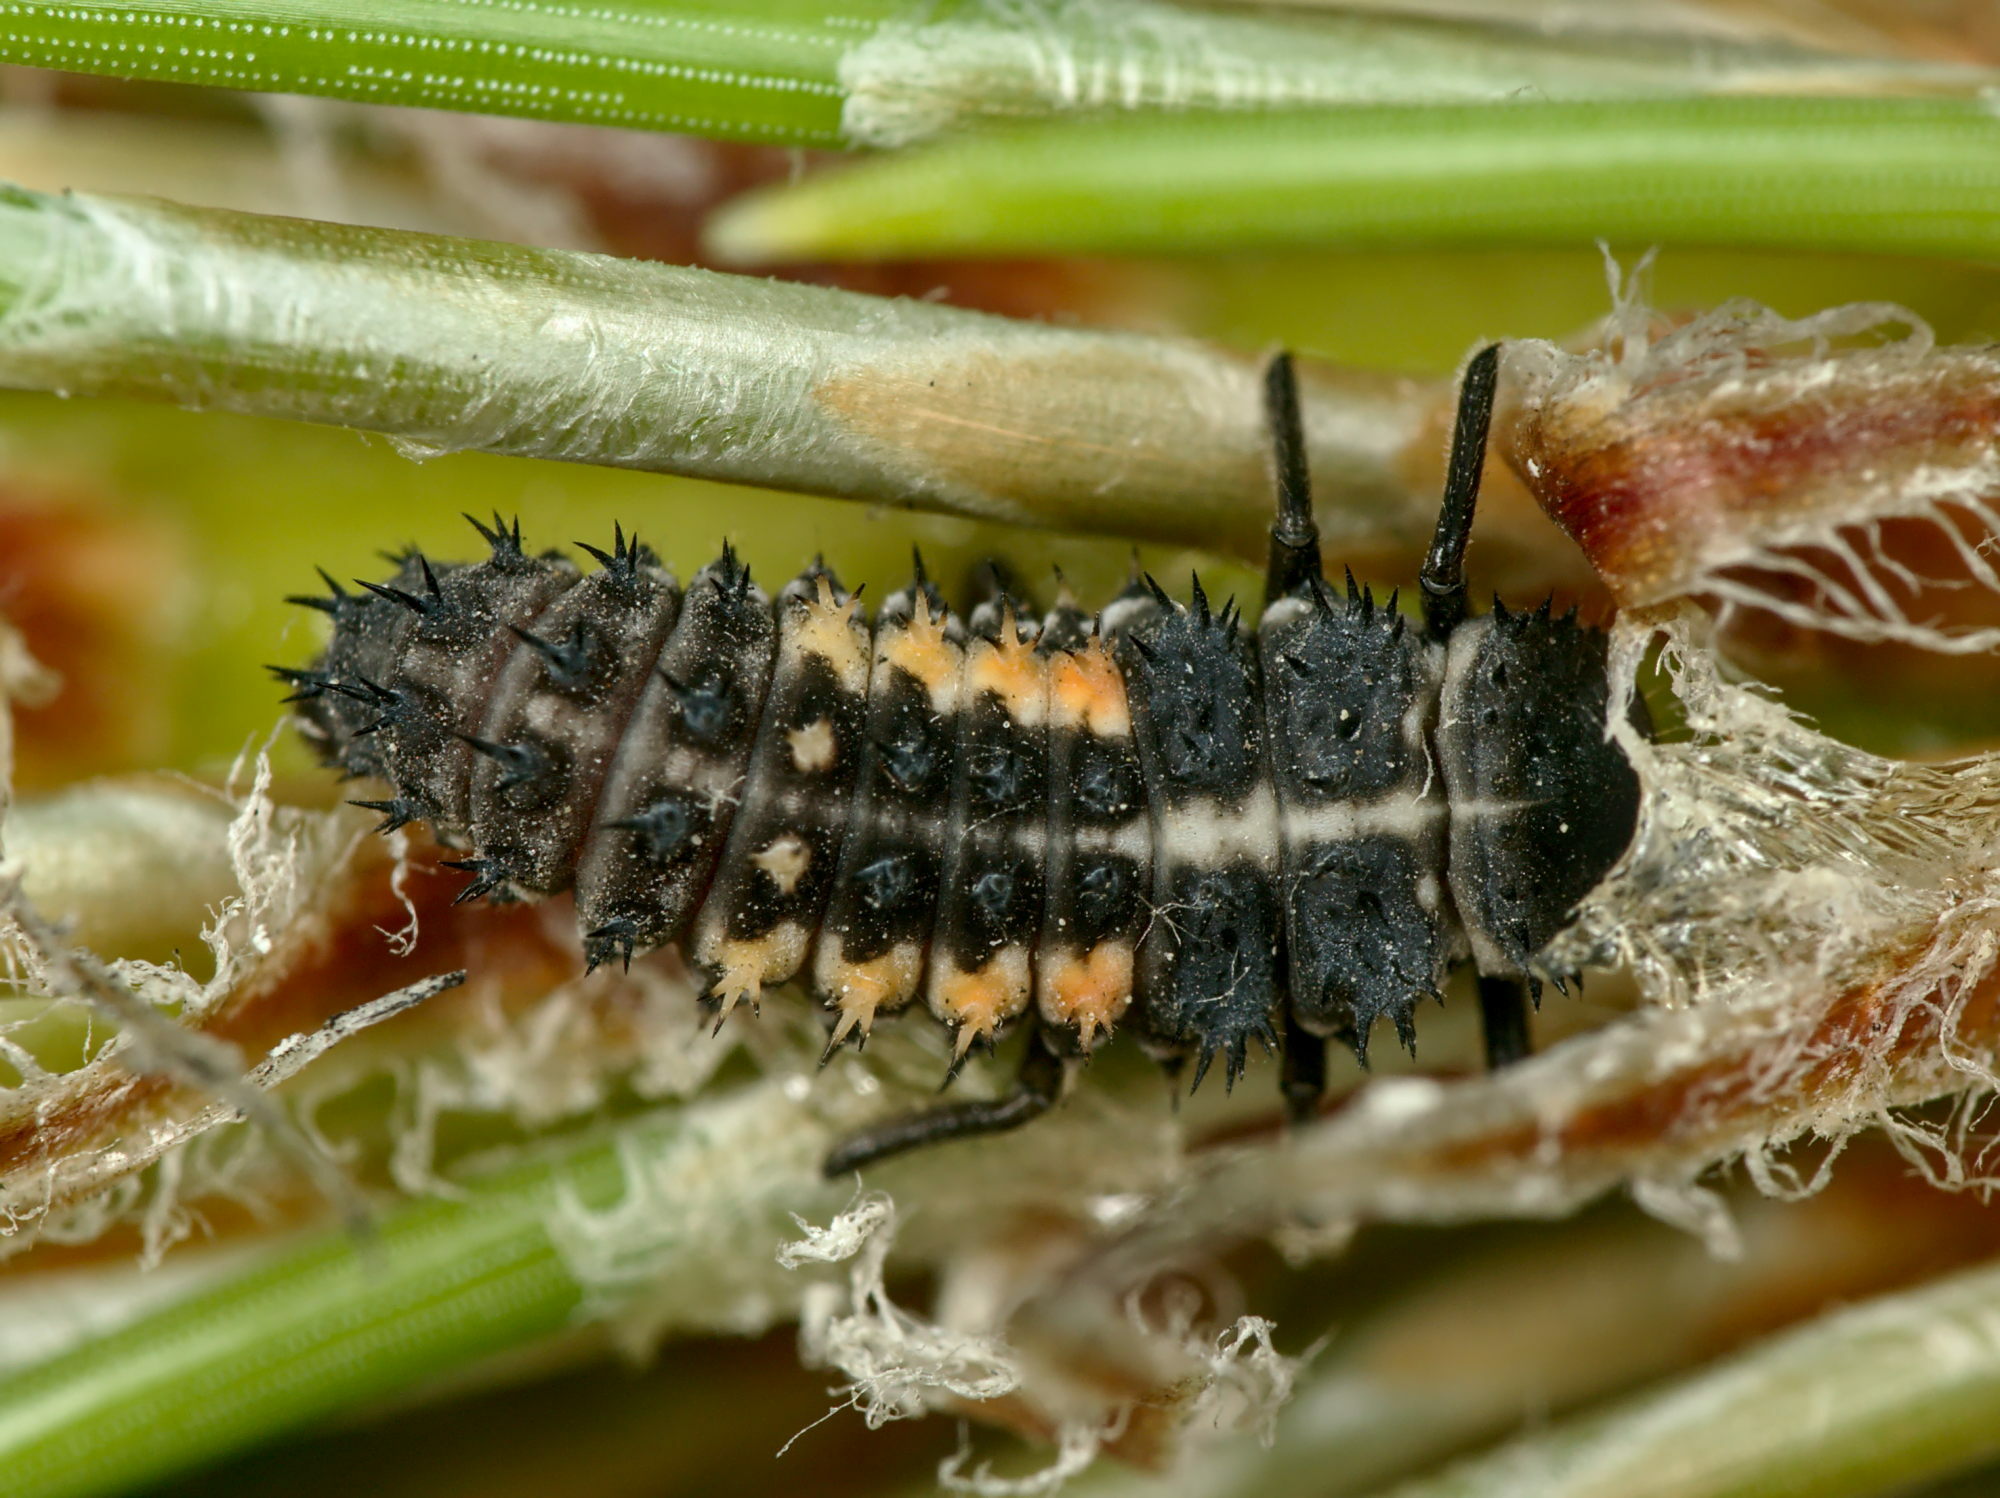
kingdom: Animalia
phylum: Arthropoda
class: Insecta
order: Coleoptera
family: Coccinellidae
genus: Harmonia
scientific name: Harmonia quadripunctata
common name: Cream-streaked ladybird
